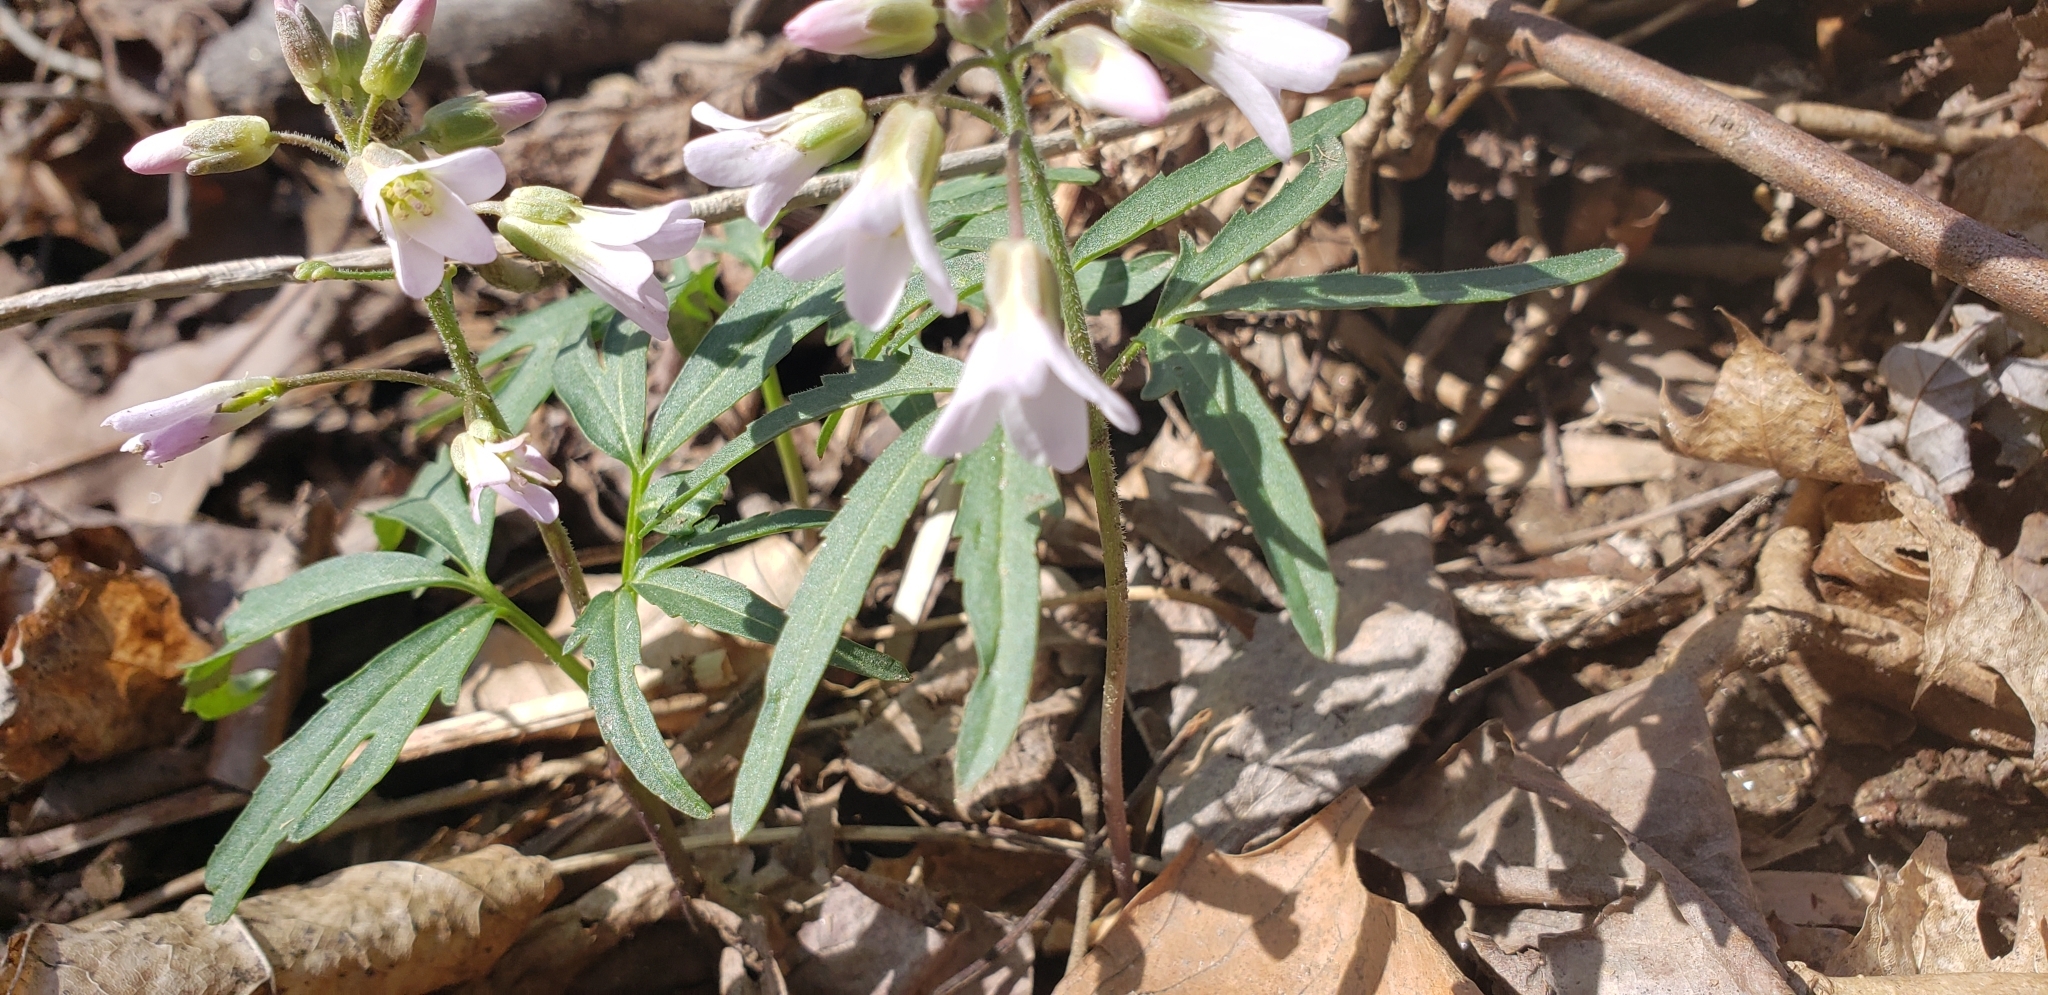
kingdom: Plantae
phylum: Tracheophyta
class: Magnoliopsida
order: Brassicales
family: Brassicaceae
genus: Cardamine
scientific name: Cardamine concatenata
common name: Cut-leaf toothcup
